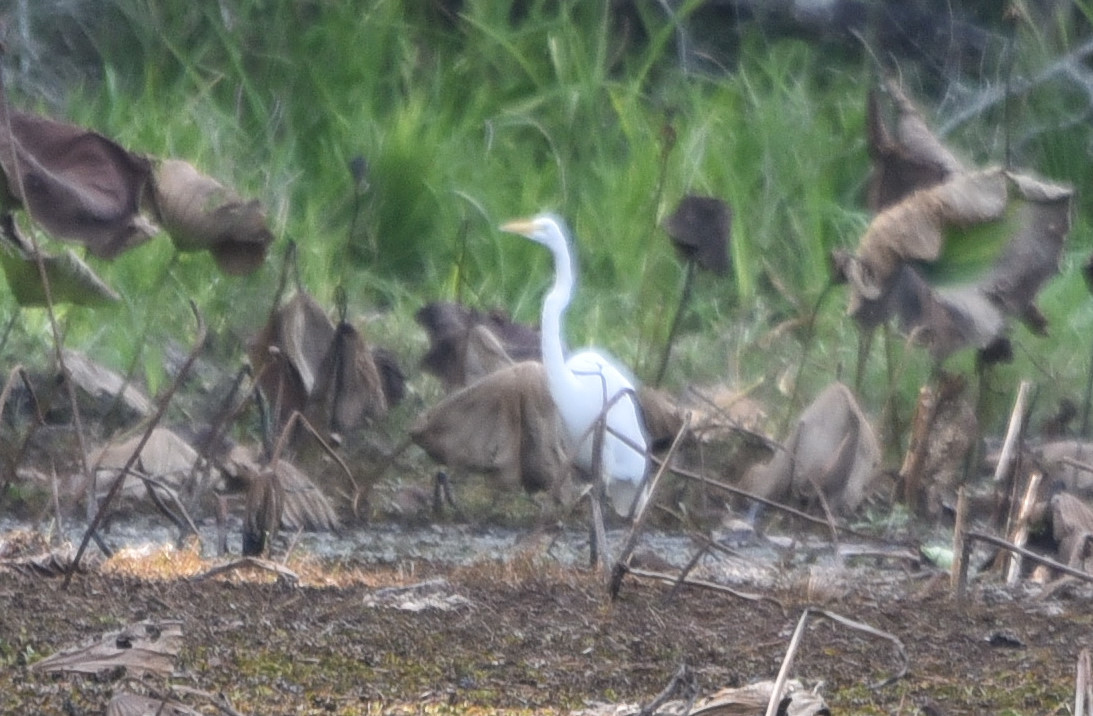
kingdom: Animalia
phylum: Chordata
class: Aves
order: Pelecaniformes
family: Ardeidae
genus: Ardea
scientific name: Ardea alba
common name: Great egret
